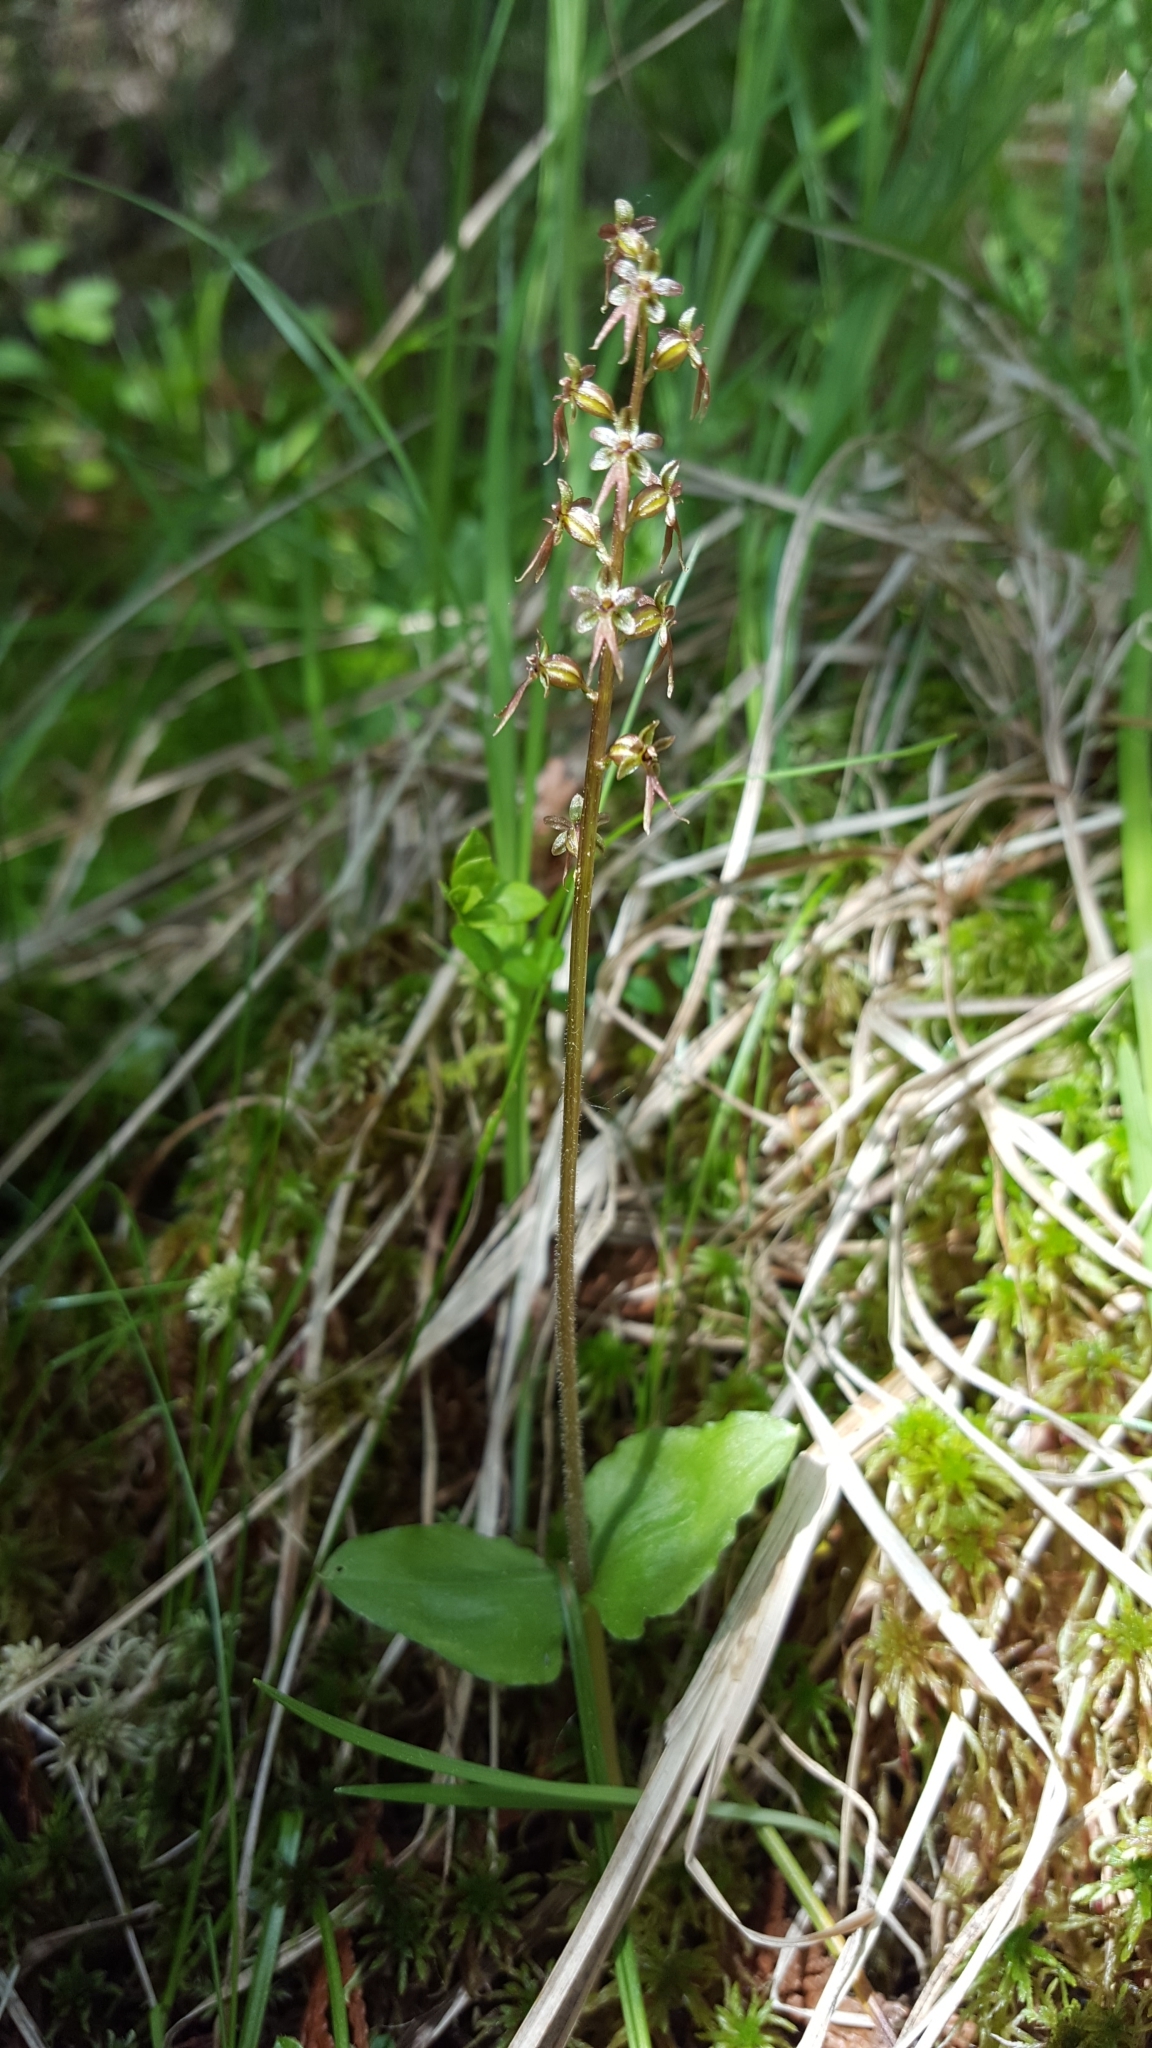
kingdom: Plantae
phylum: Tracheophyta
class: Liliopsida
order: Asparagales
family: Orchidaceae
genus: Neottia
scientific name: Neottia cordata
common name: Lesser twayblade
